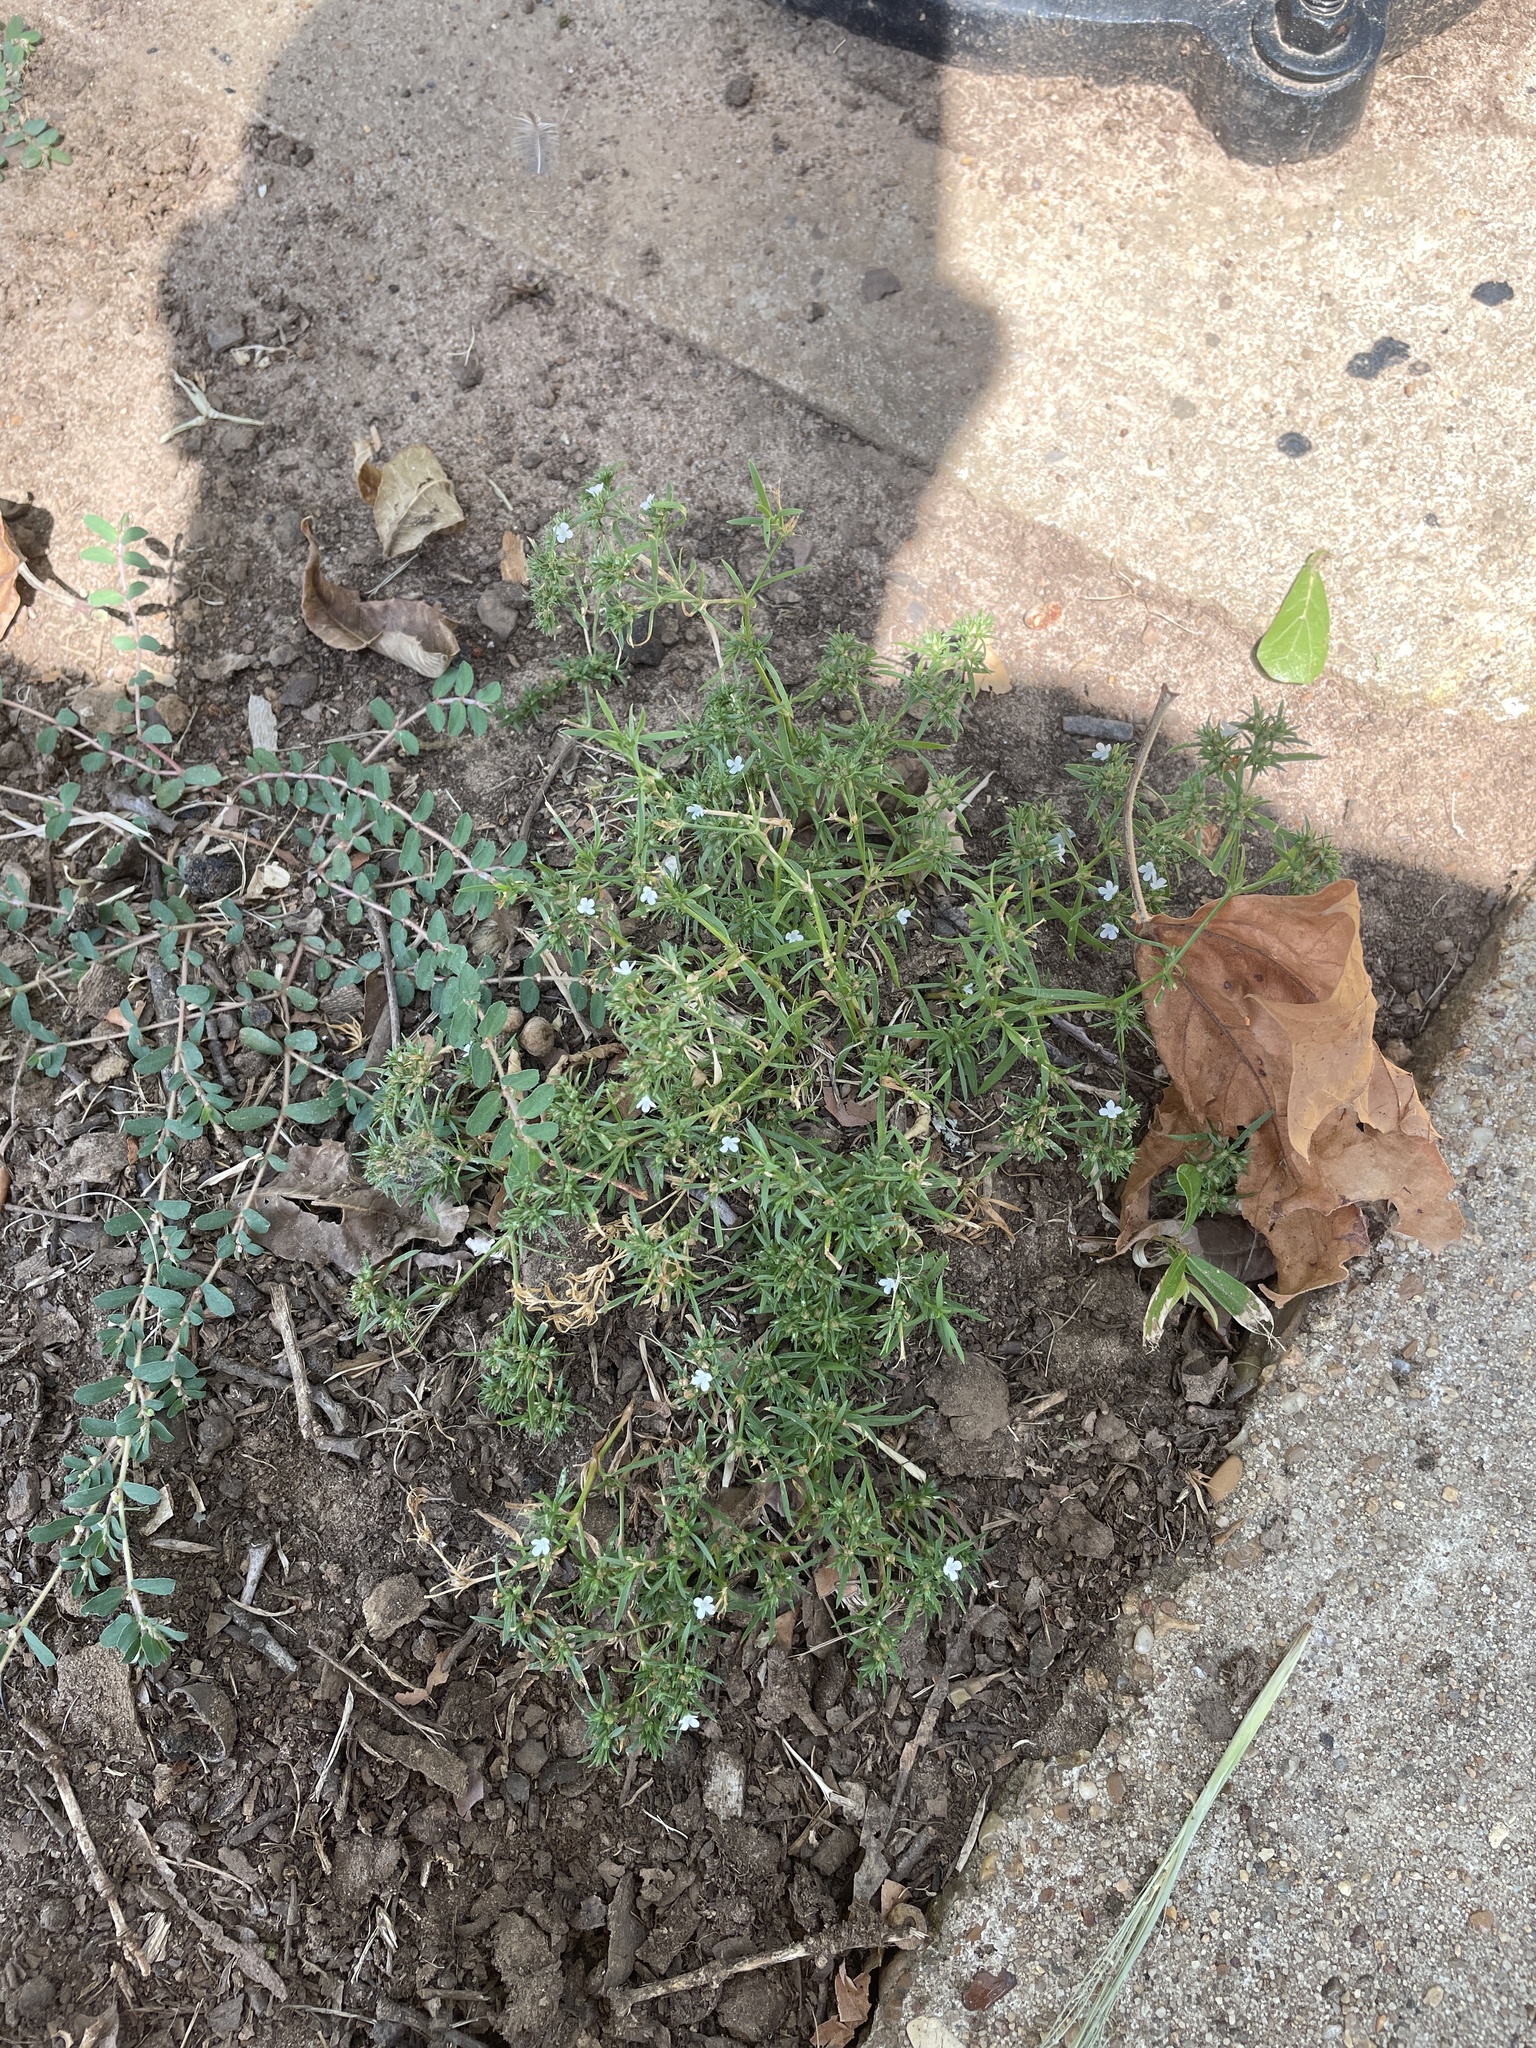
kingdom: Plantae
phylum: Tracheophyta
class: Magnoliopsida
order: Lamiales
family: Tetrachondraceae
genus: Polypremum
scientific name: Polypremum procumbens
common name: Juniper-leaf
